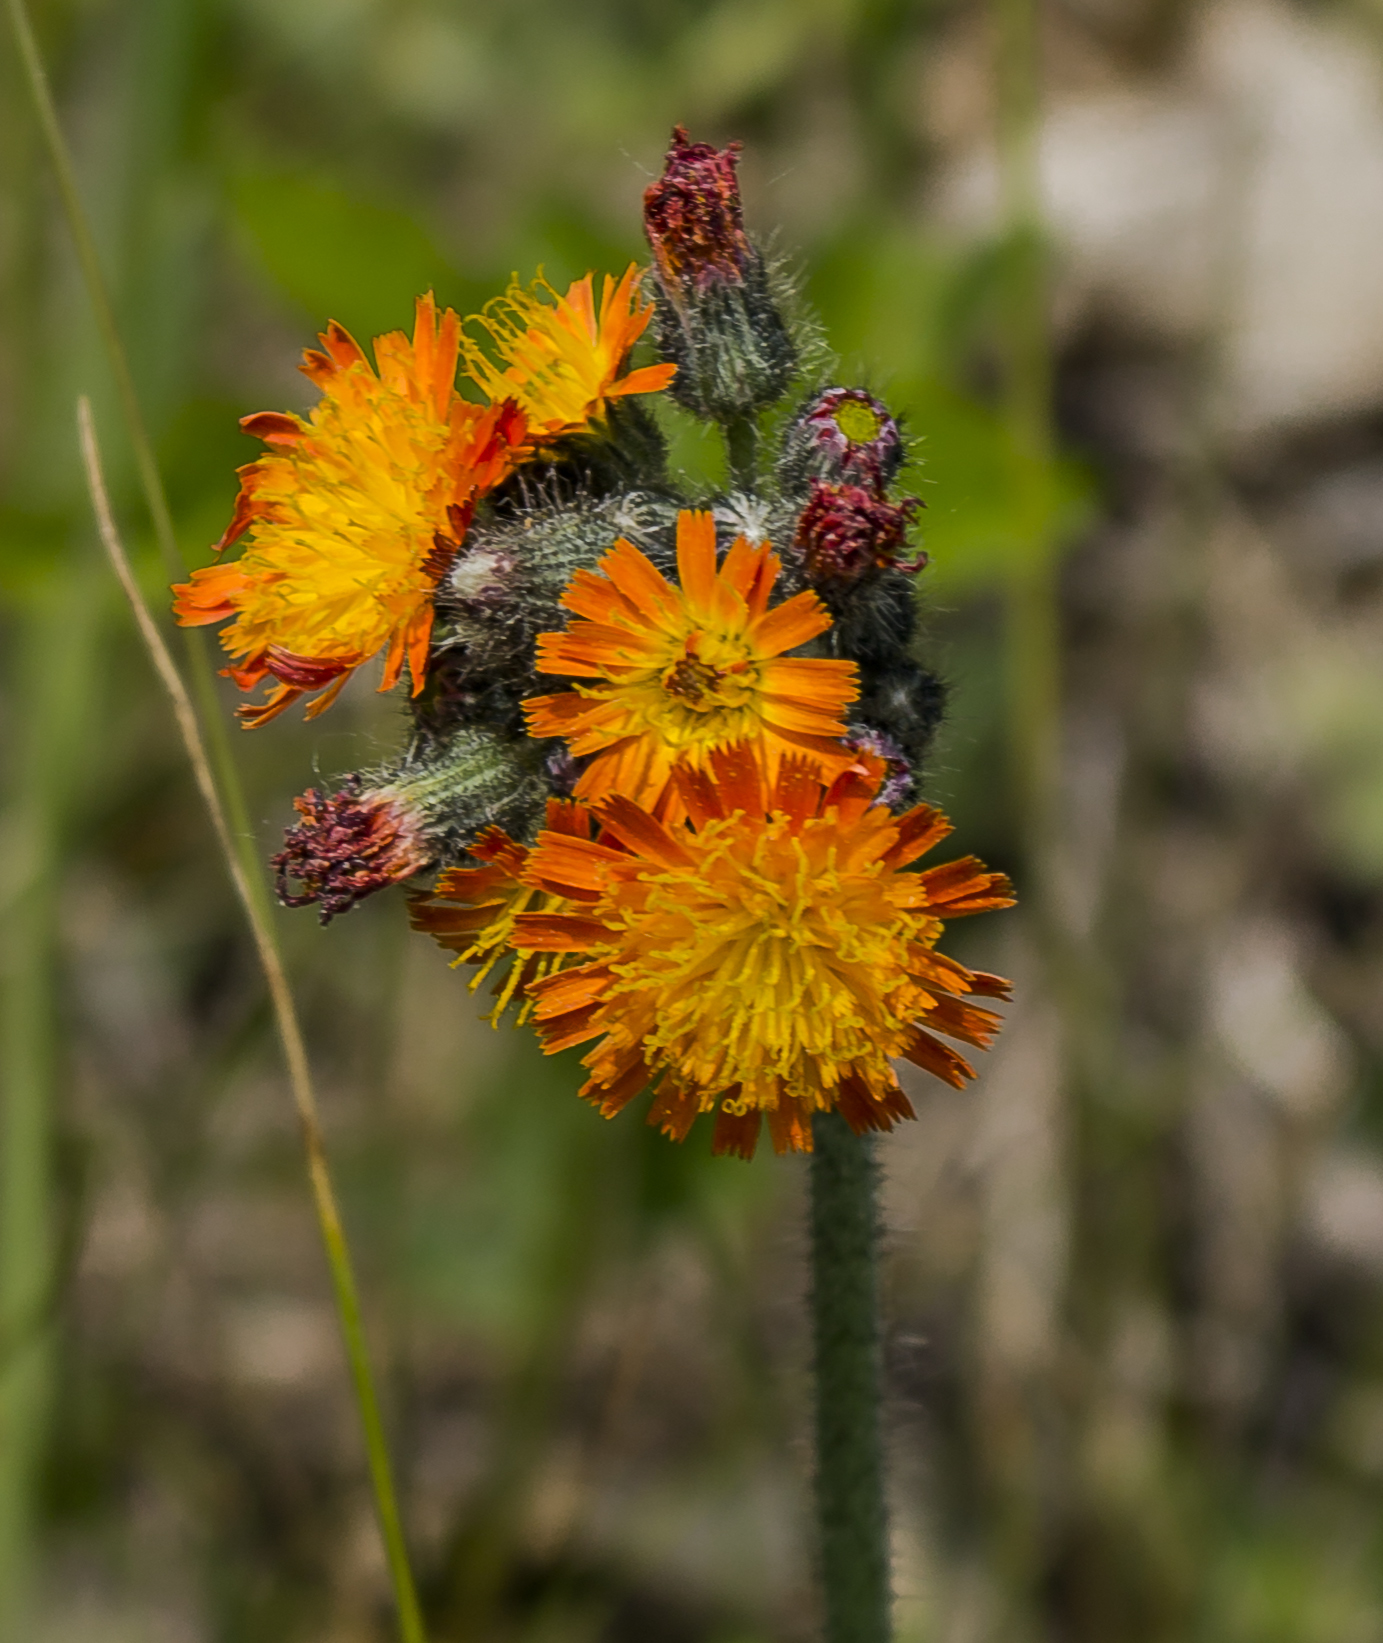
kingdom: Plantae
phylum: Tracheophyta
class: Magnoliopsida
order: Asterales
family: Asteraceae
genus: Pilosella
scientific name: Pilosella aurantiaca
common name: Fox-and-cubs
